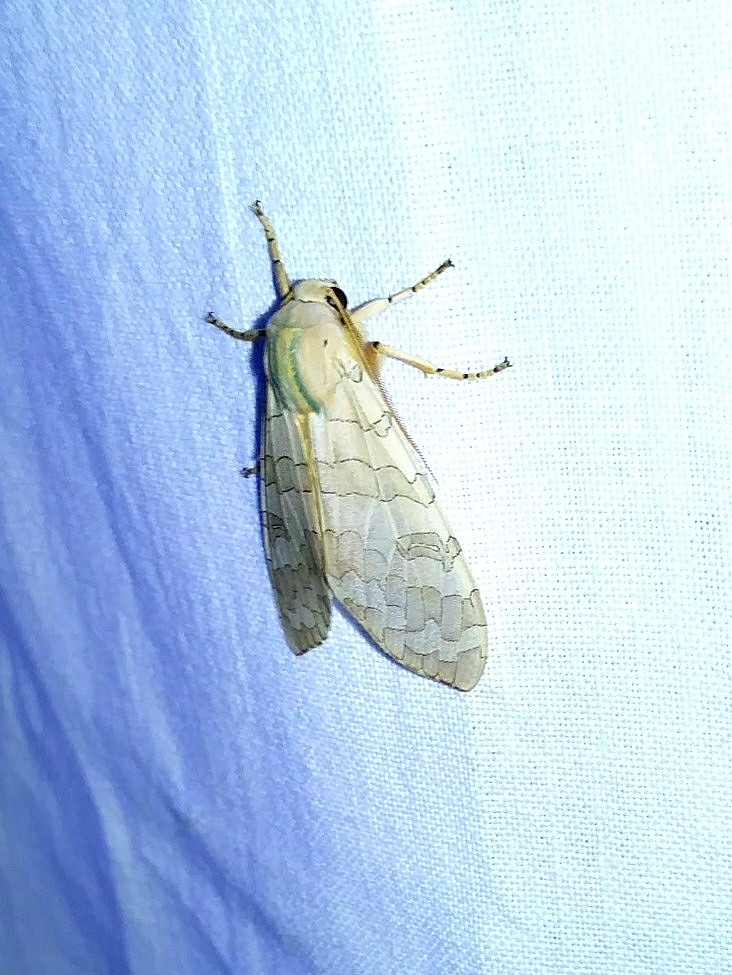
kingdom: Animalia
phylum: Arthropoda
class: Insecta
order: Lepidoptera
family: Erebidae
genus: Halysidota
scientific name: Halysidota
